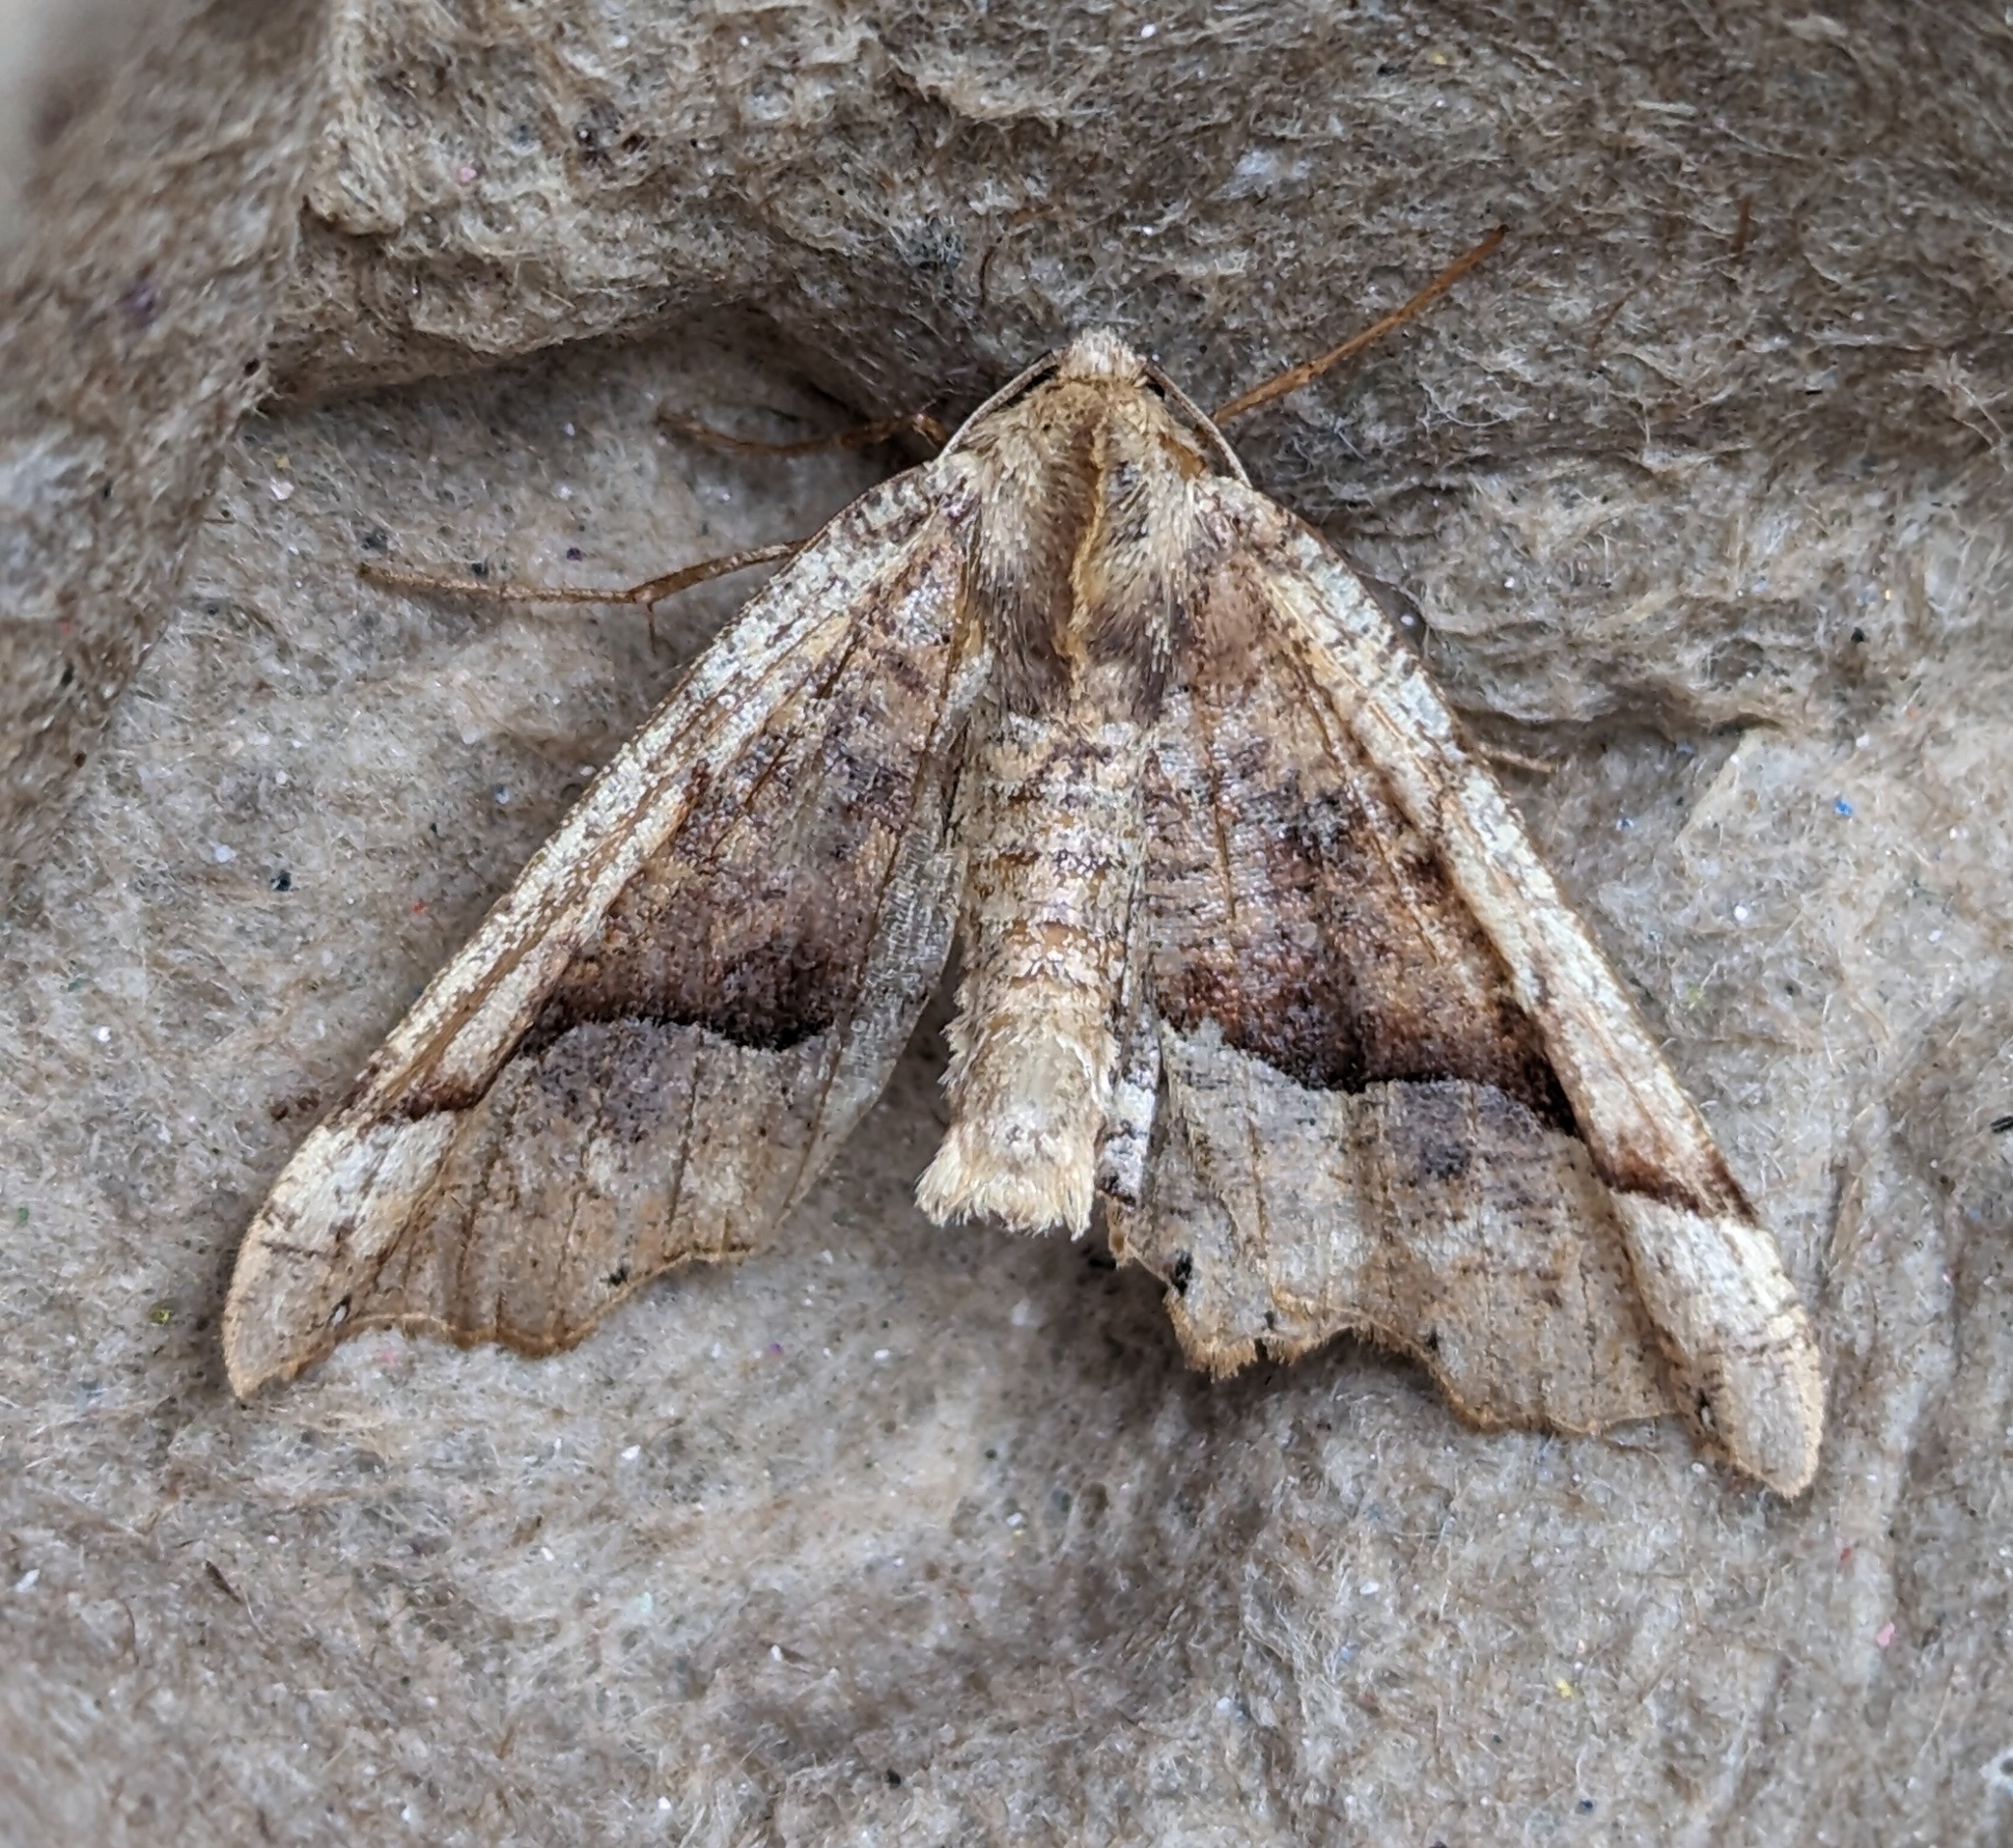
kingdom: Animalia
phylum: Arthropoda
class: Insecta
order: Lepidoptera
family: Geometridae
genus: Pero
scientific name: Pero morrisonaria
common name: Morrison's pero
